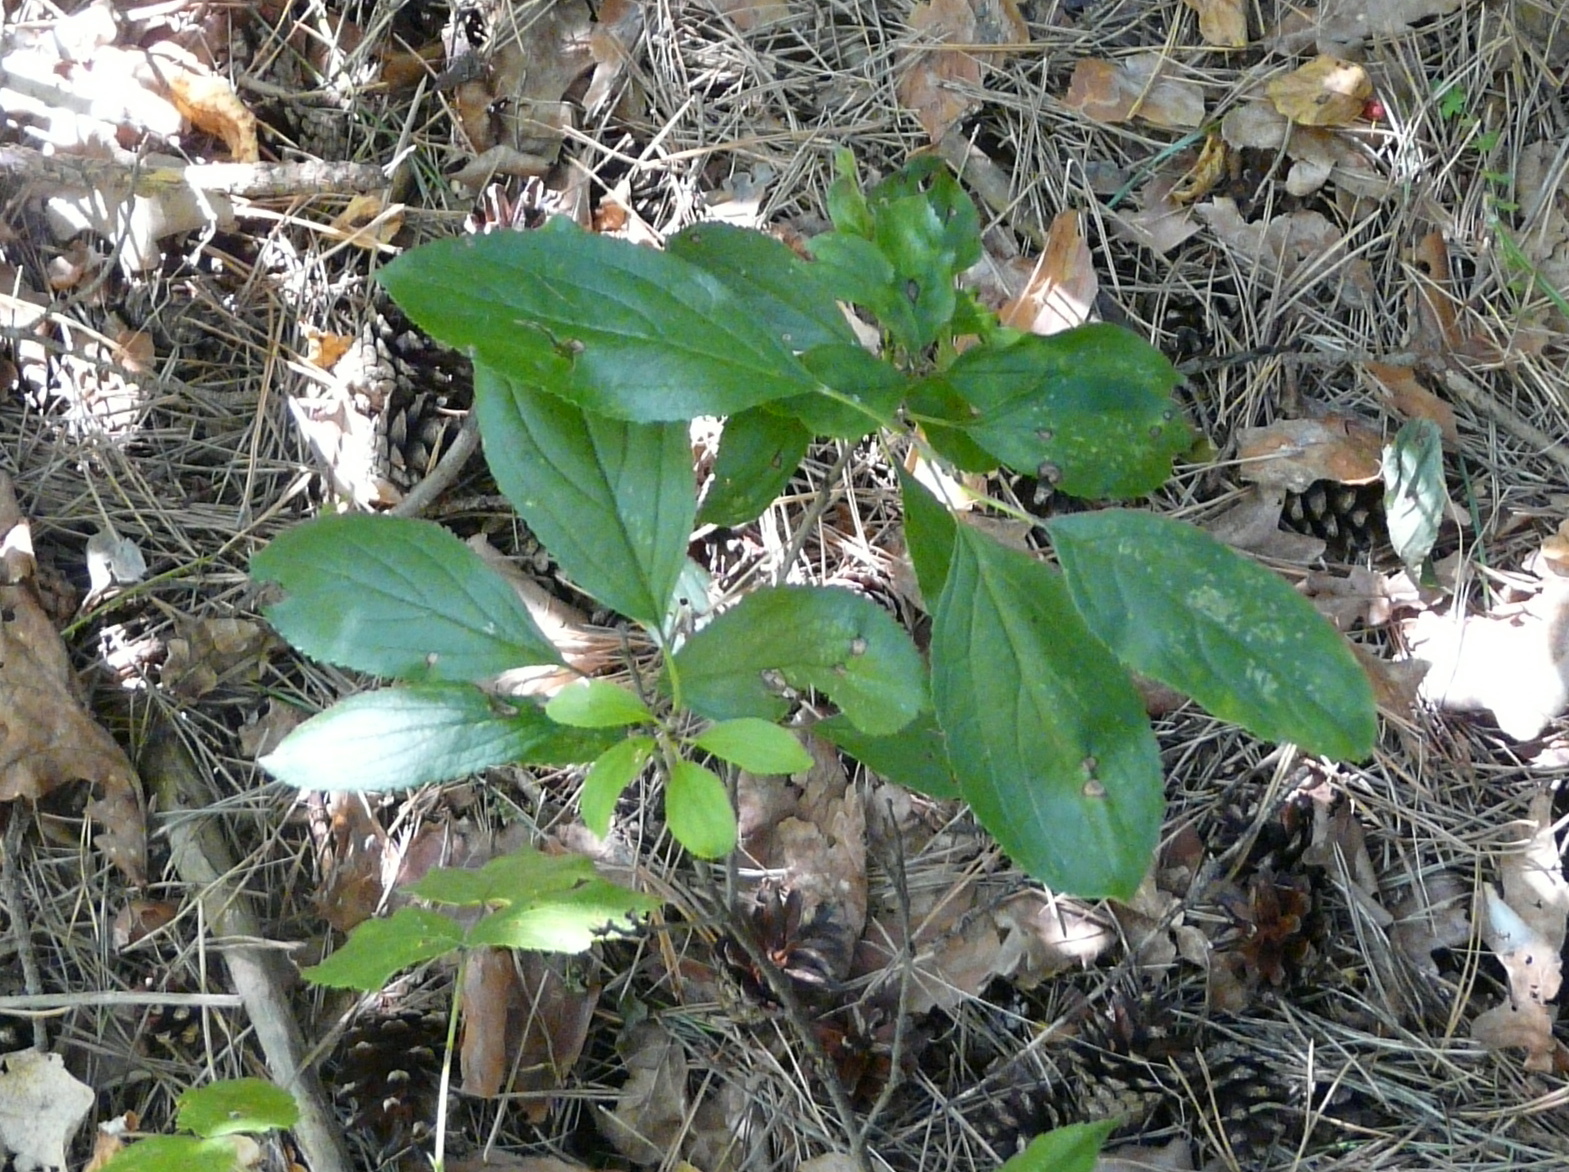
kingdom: Plantae
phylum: Tracheophyta
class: Magnoliopsida
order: Rosales
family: Rhamnaceae
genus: Rhamnus
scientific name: Rhamnus cathartica
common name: Common buckthorn
